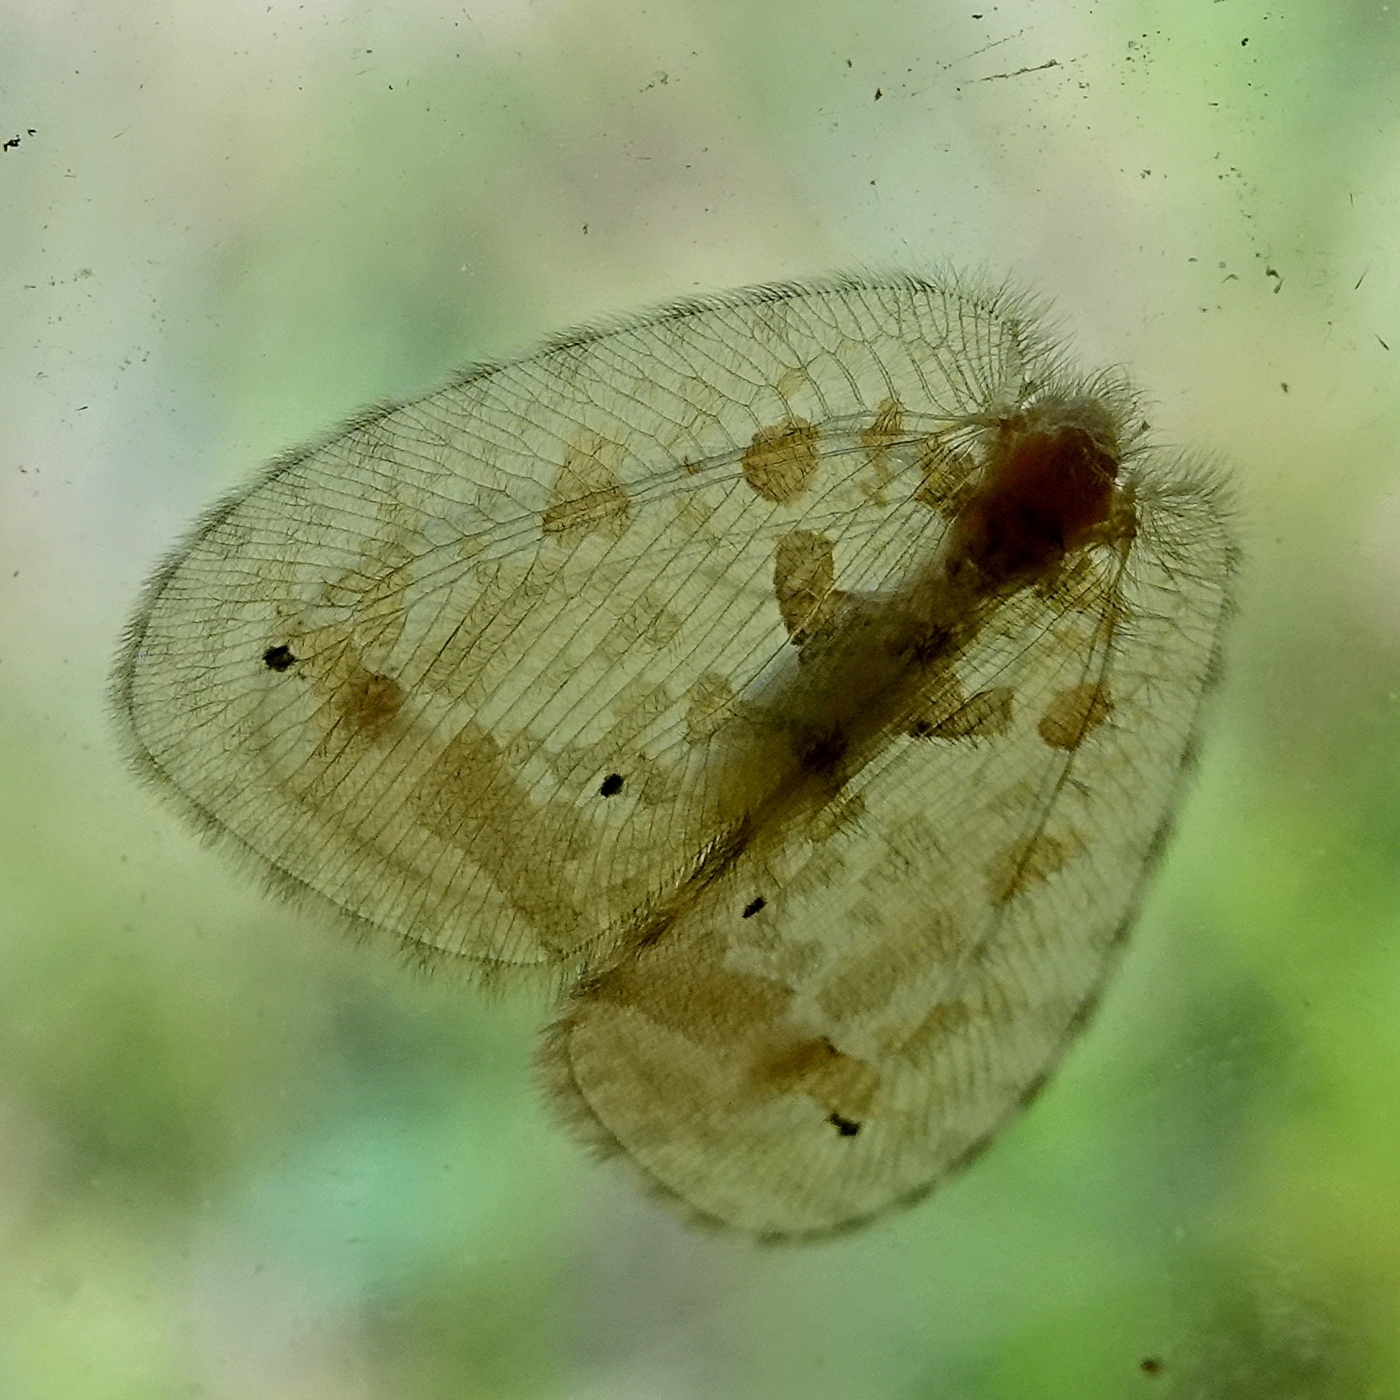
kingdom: Animalia
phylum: Arthropoda
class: Insecta
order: Neuroptera
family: Psychopsidae
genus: Psychopsis
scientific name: Psychopsis insolens
